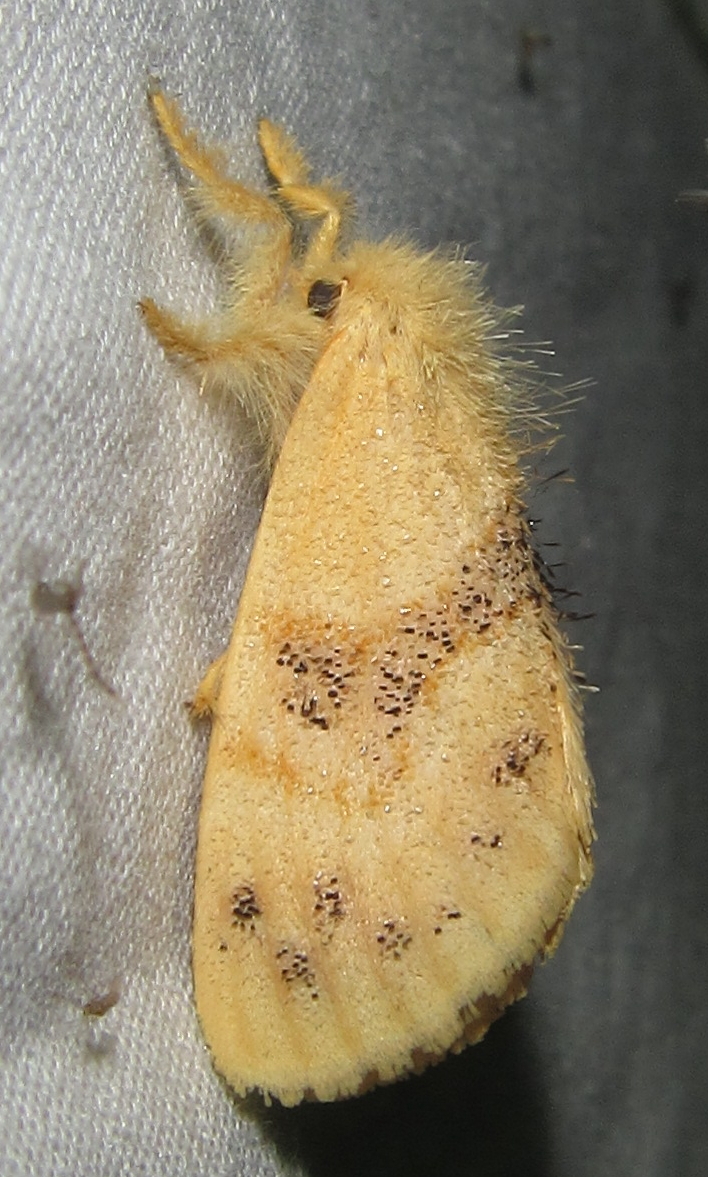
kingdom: Animalia
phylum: Arthropoda
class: Insecta
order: Lepidoptera
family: Erebidae
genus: Euproctis
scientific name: Euproctis Knappetra fasciata
